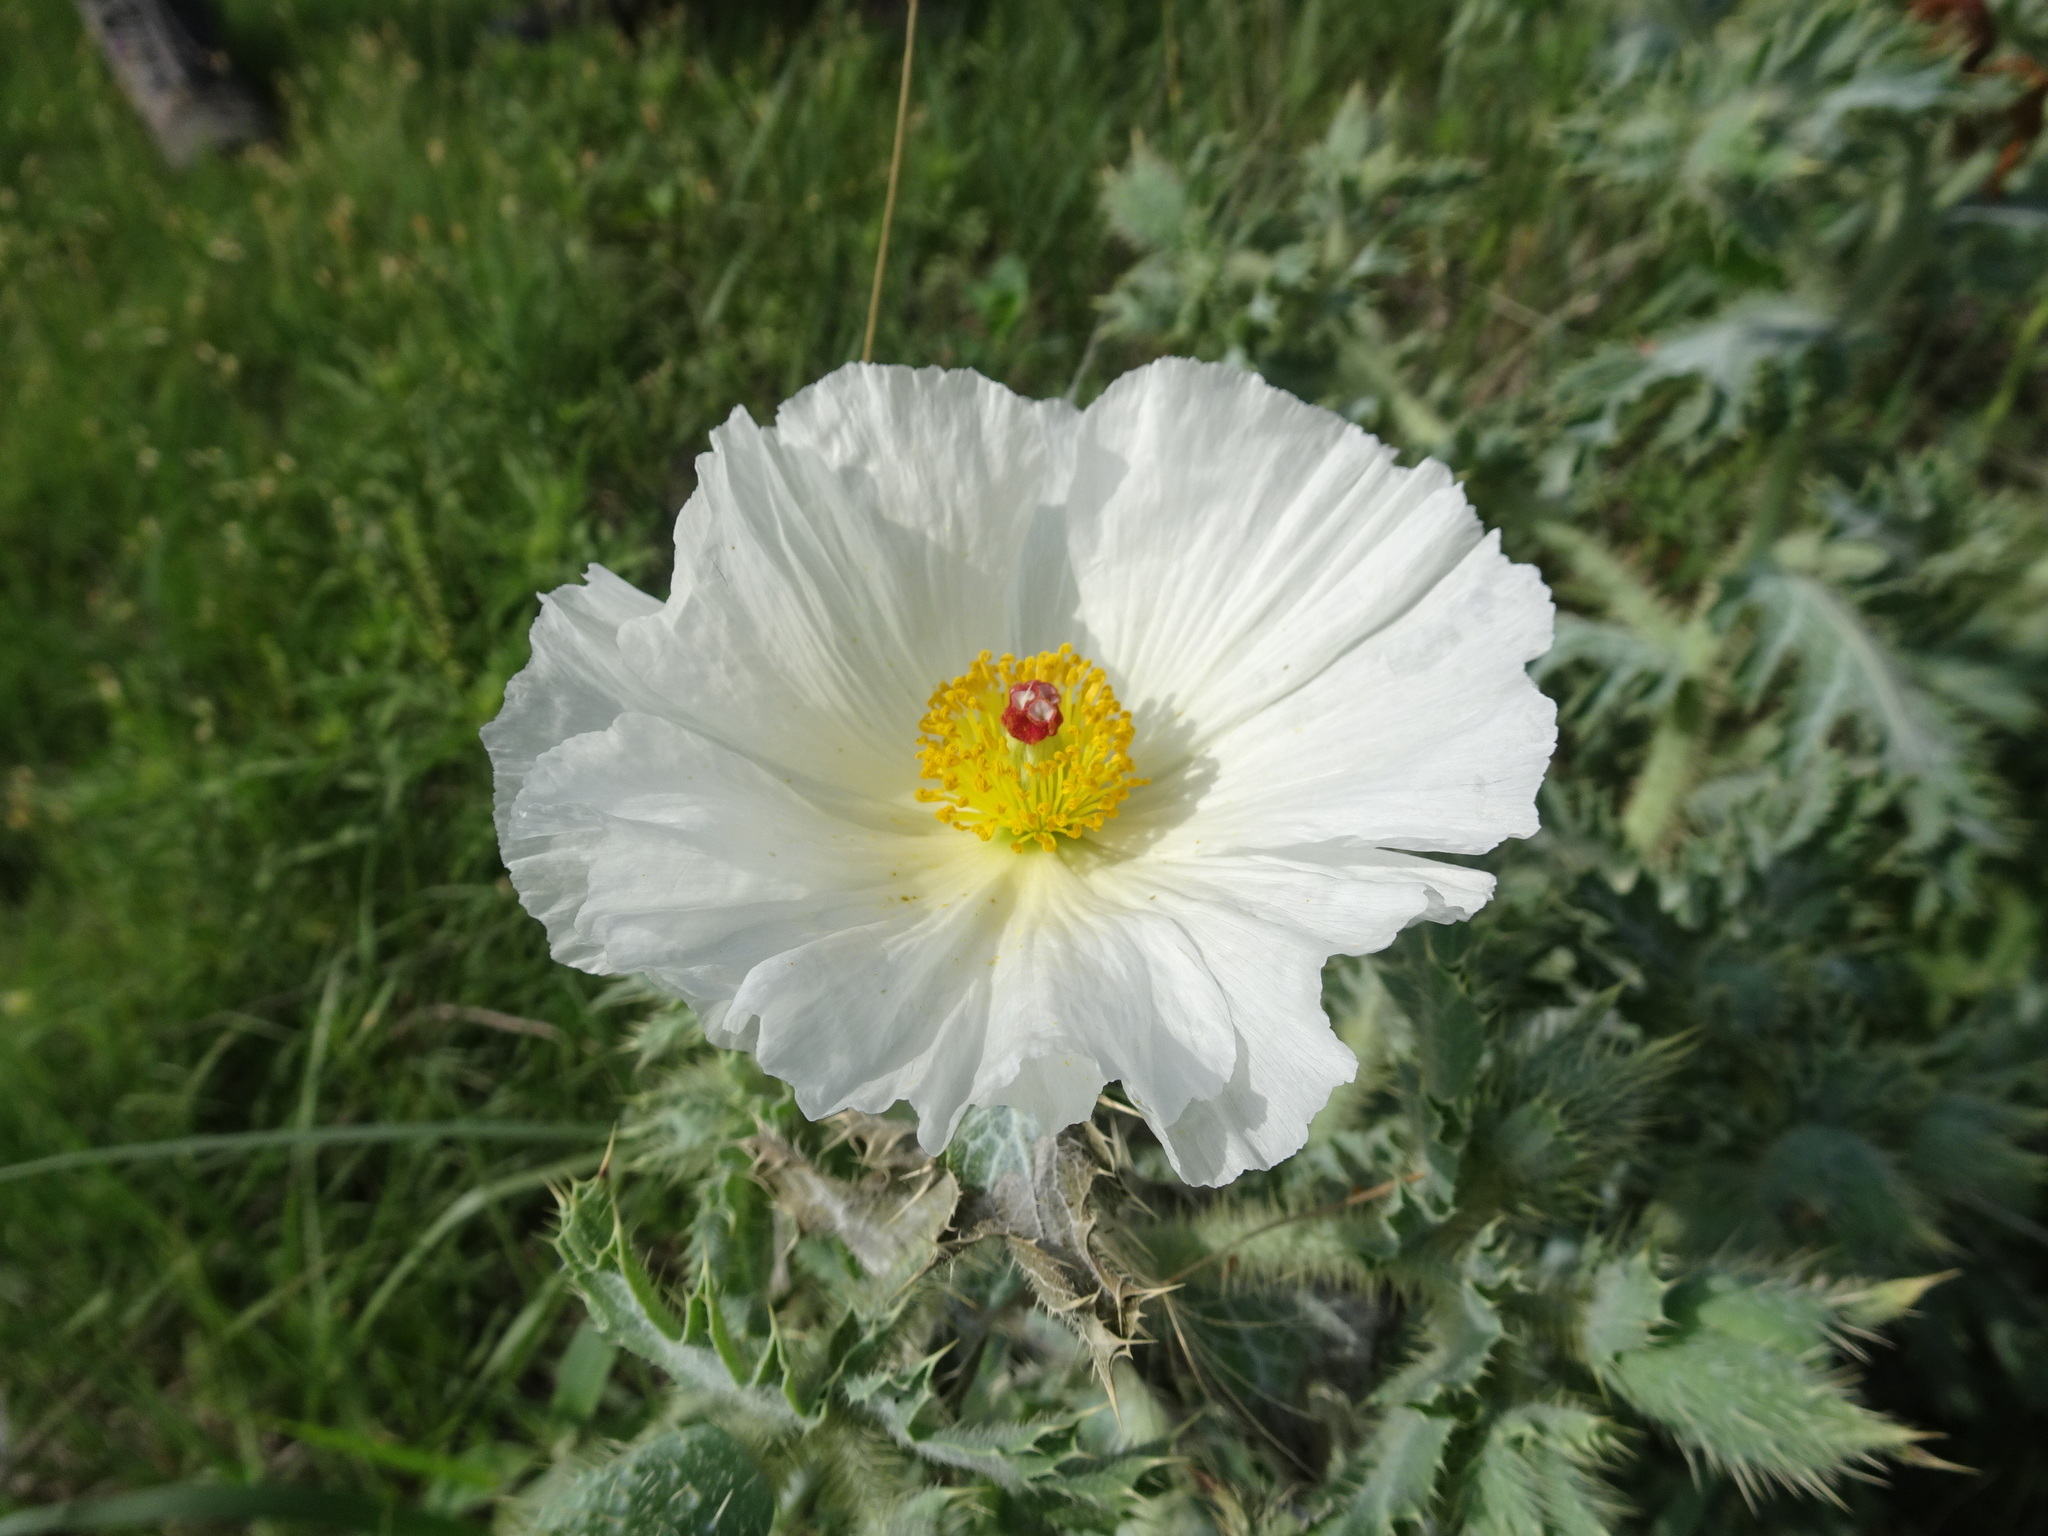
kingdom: Plantae
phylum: Tracheophyta
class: Magnoliopsida
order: Ranunculales
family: Papaveraceae
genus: Argemone
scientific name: Argemone polyanthemos
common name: Plains prickly-poppy
